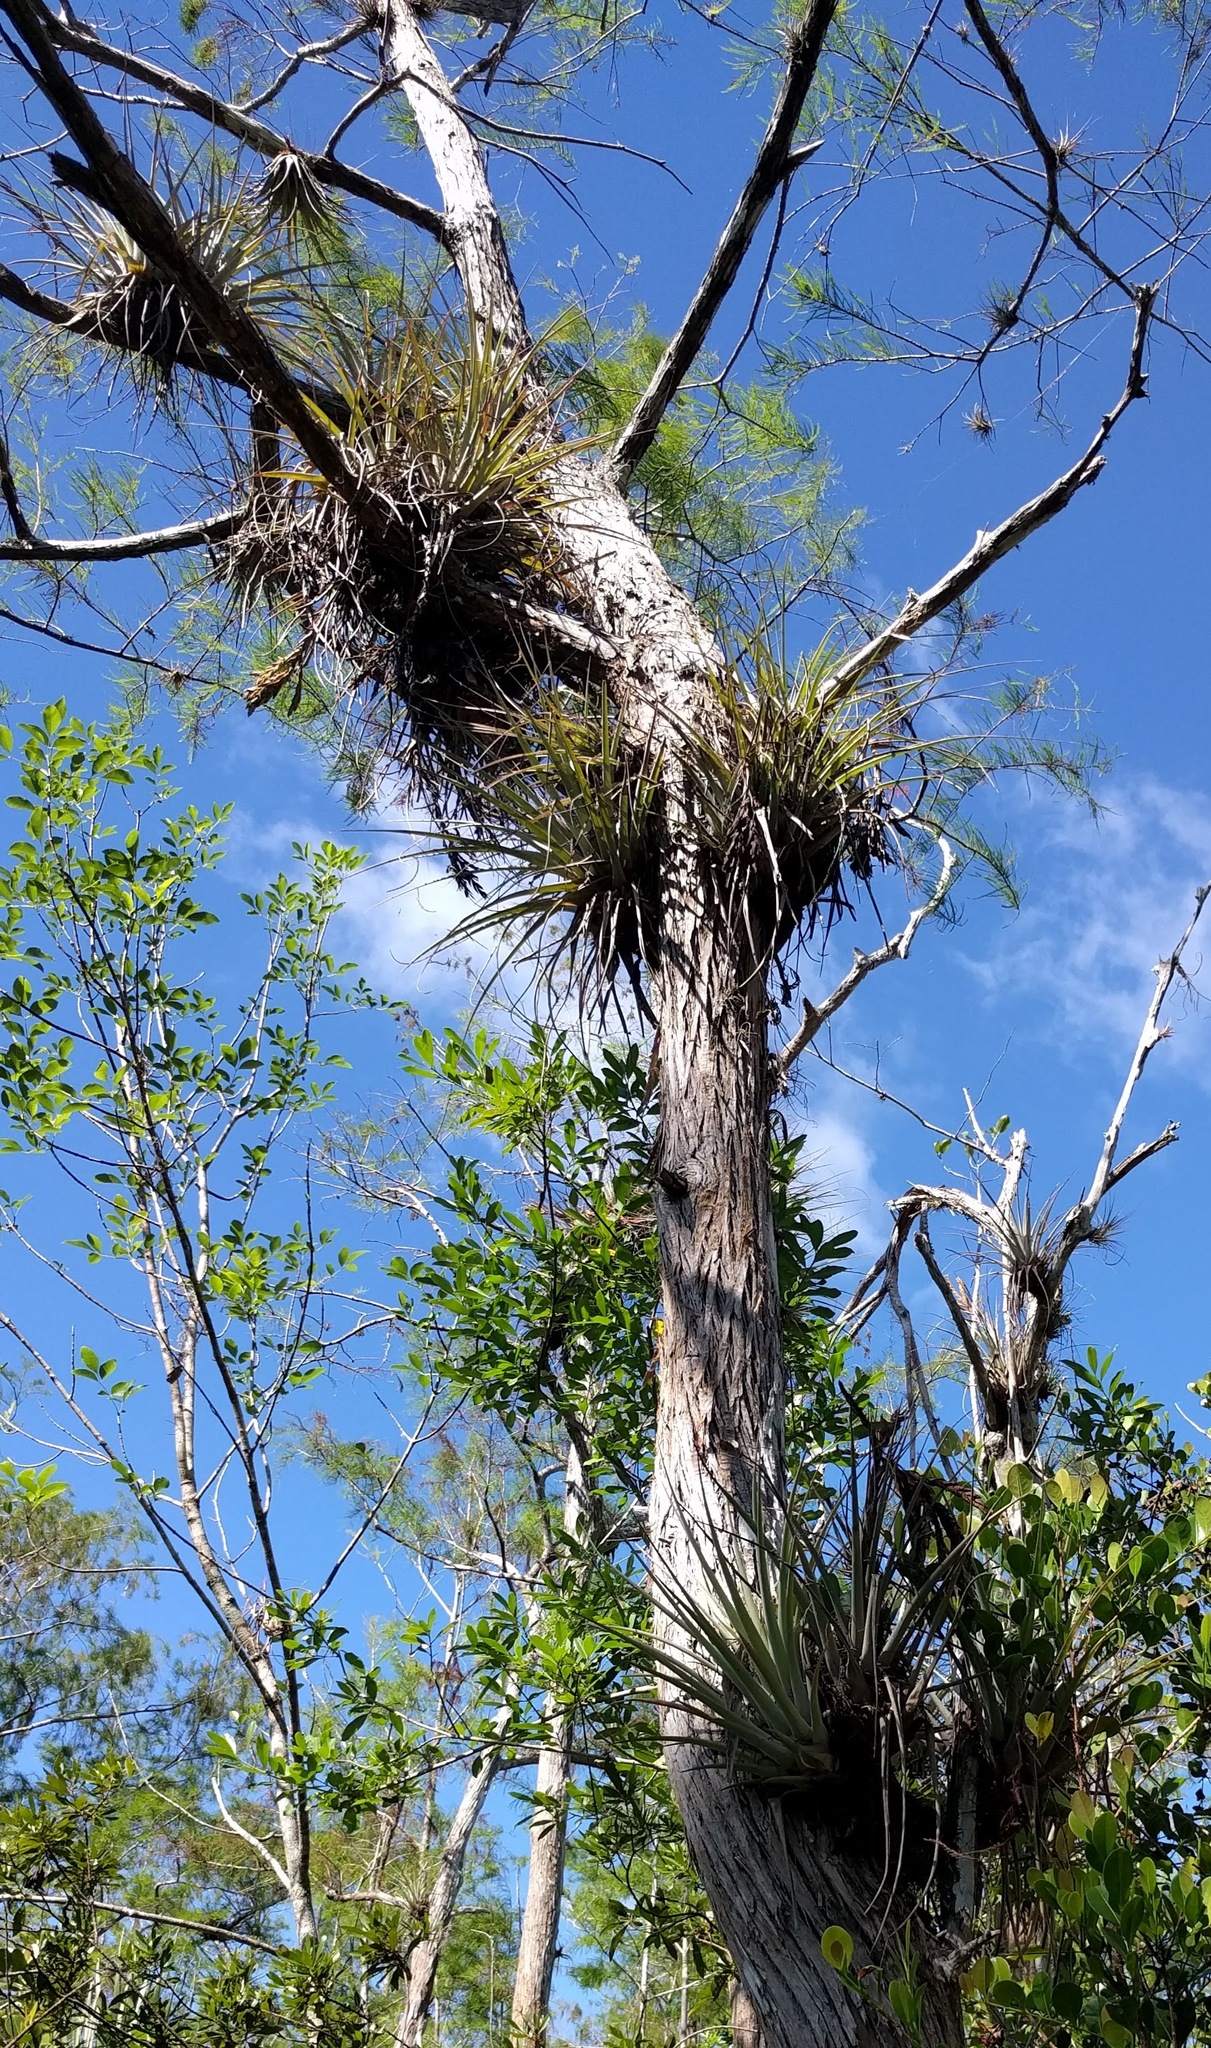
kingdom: Plantae
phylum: Tracheophyta
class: Liliopsida
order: Poales
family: Bromeliaceae
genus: Tillandsia
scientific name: Tillandsia fasciculata
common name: Giant airplant
